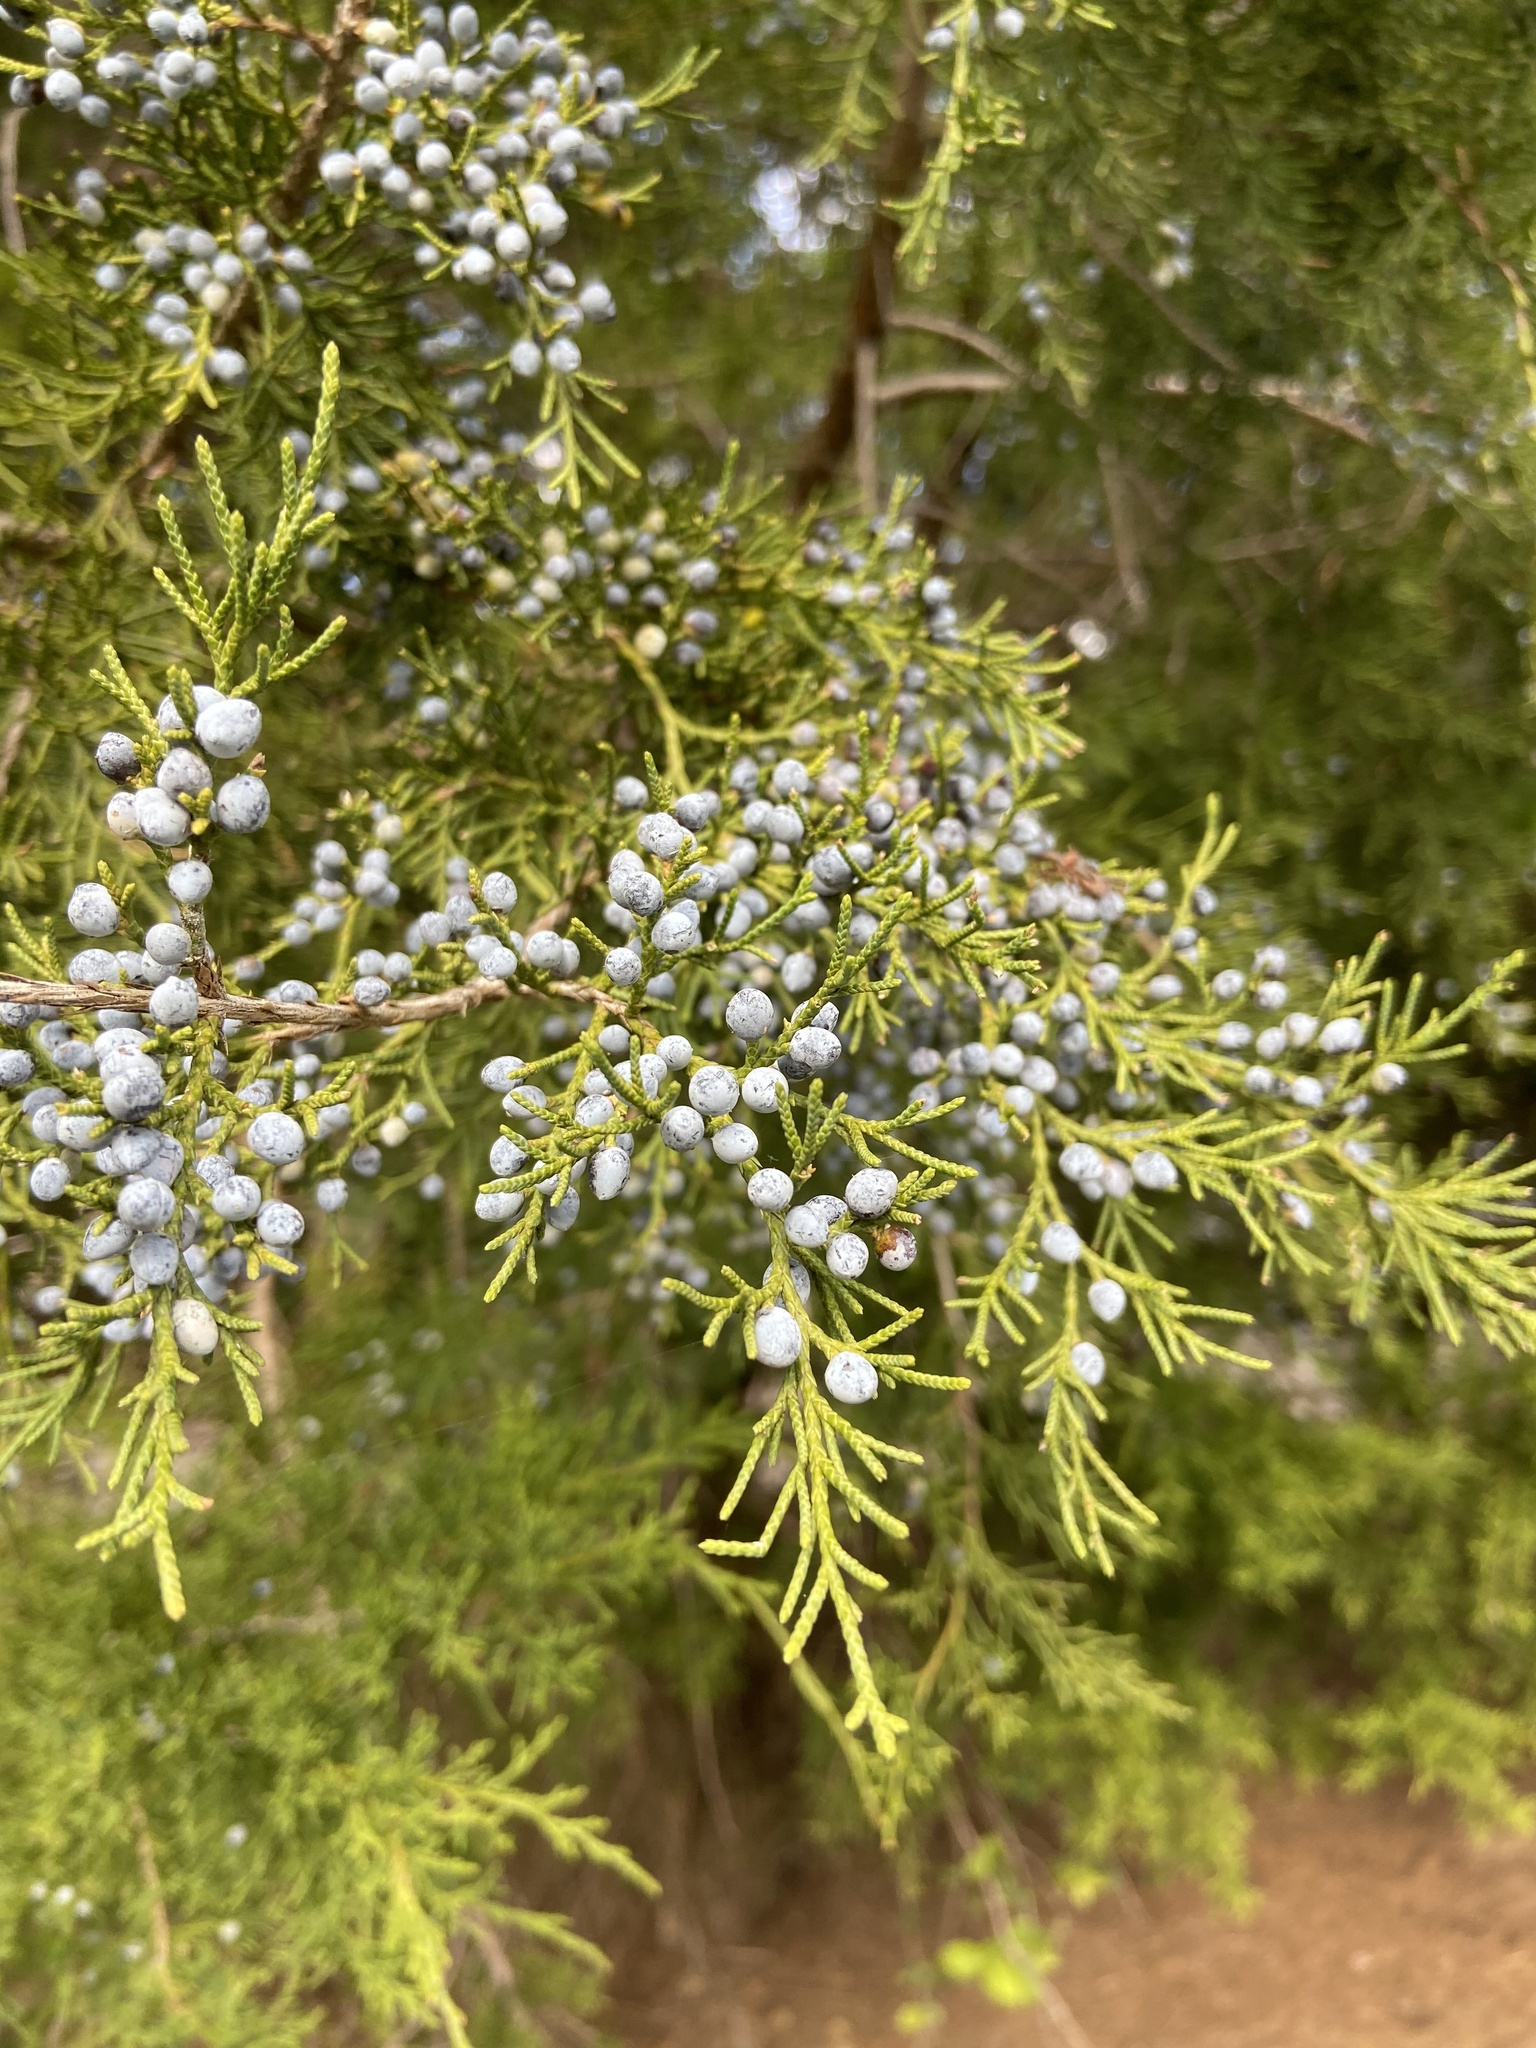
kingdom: Plantae
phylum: Tracheophyta
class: Pinopsida
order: Pinales
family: Cupressaceae
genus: Juniperus
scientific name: Juniperus virginiana
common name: Red juniper
